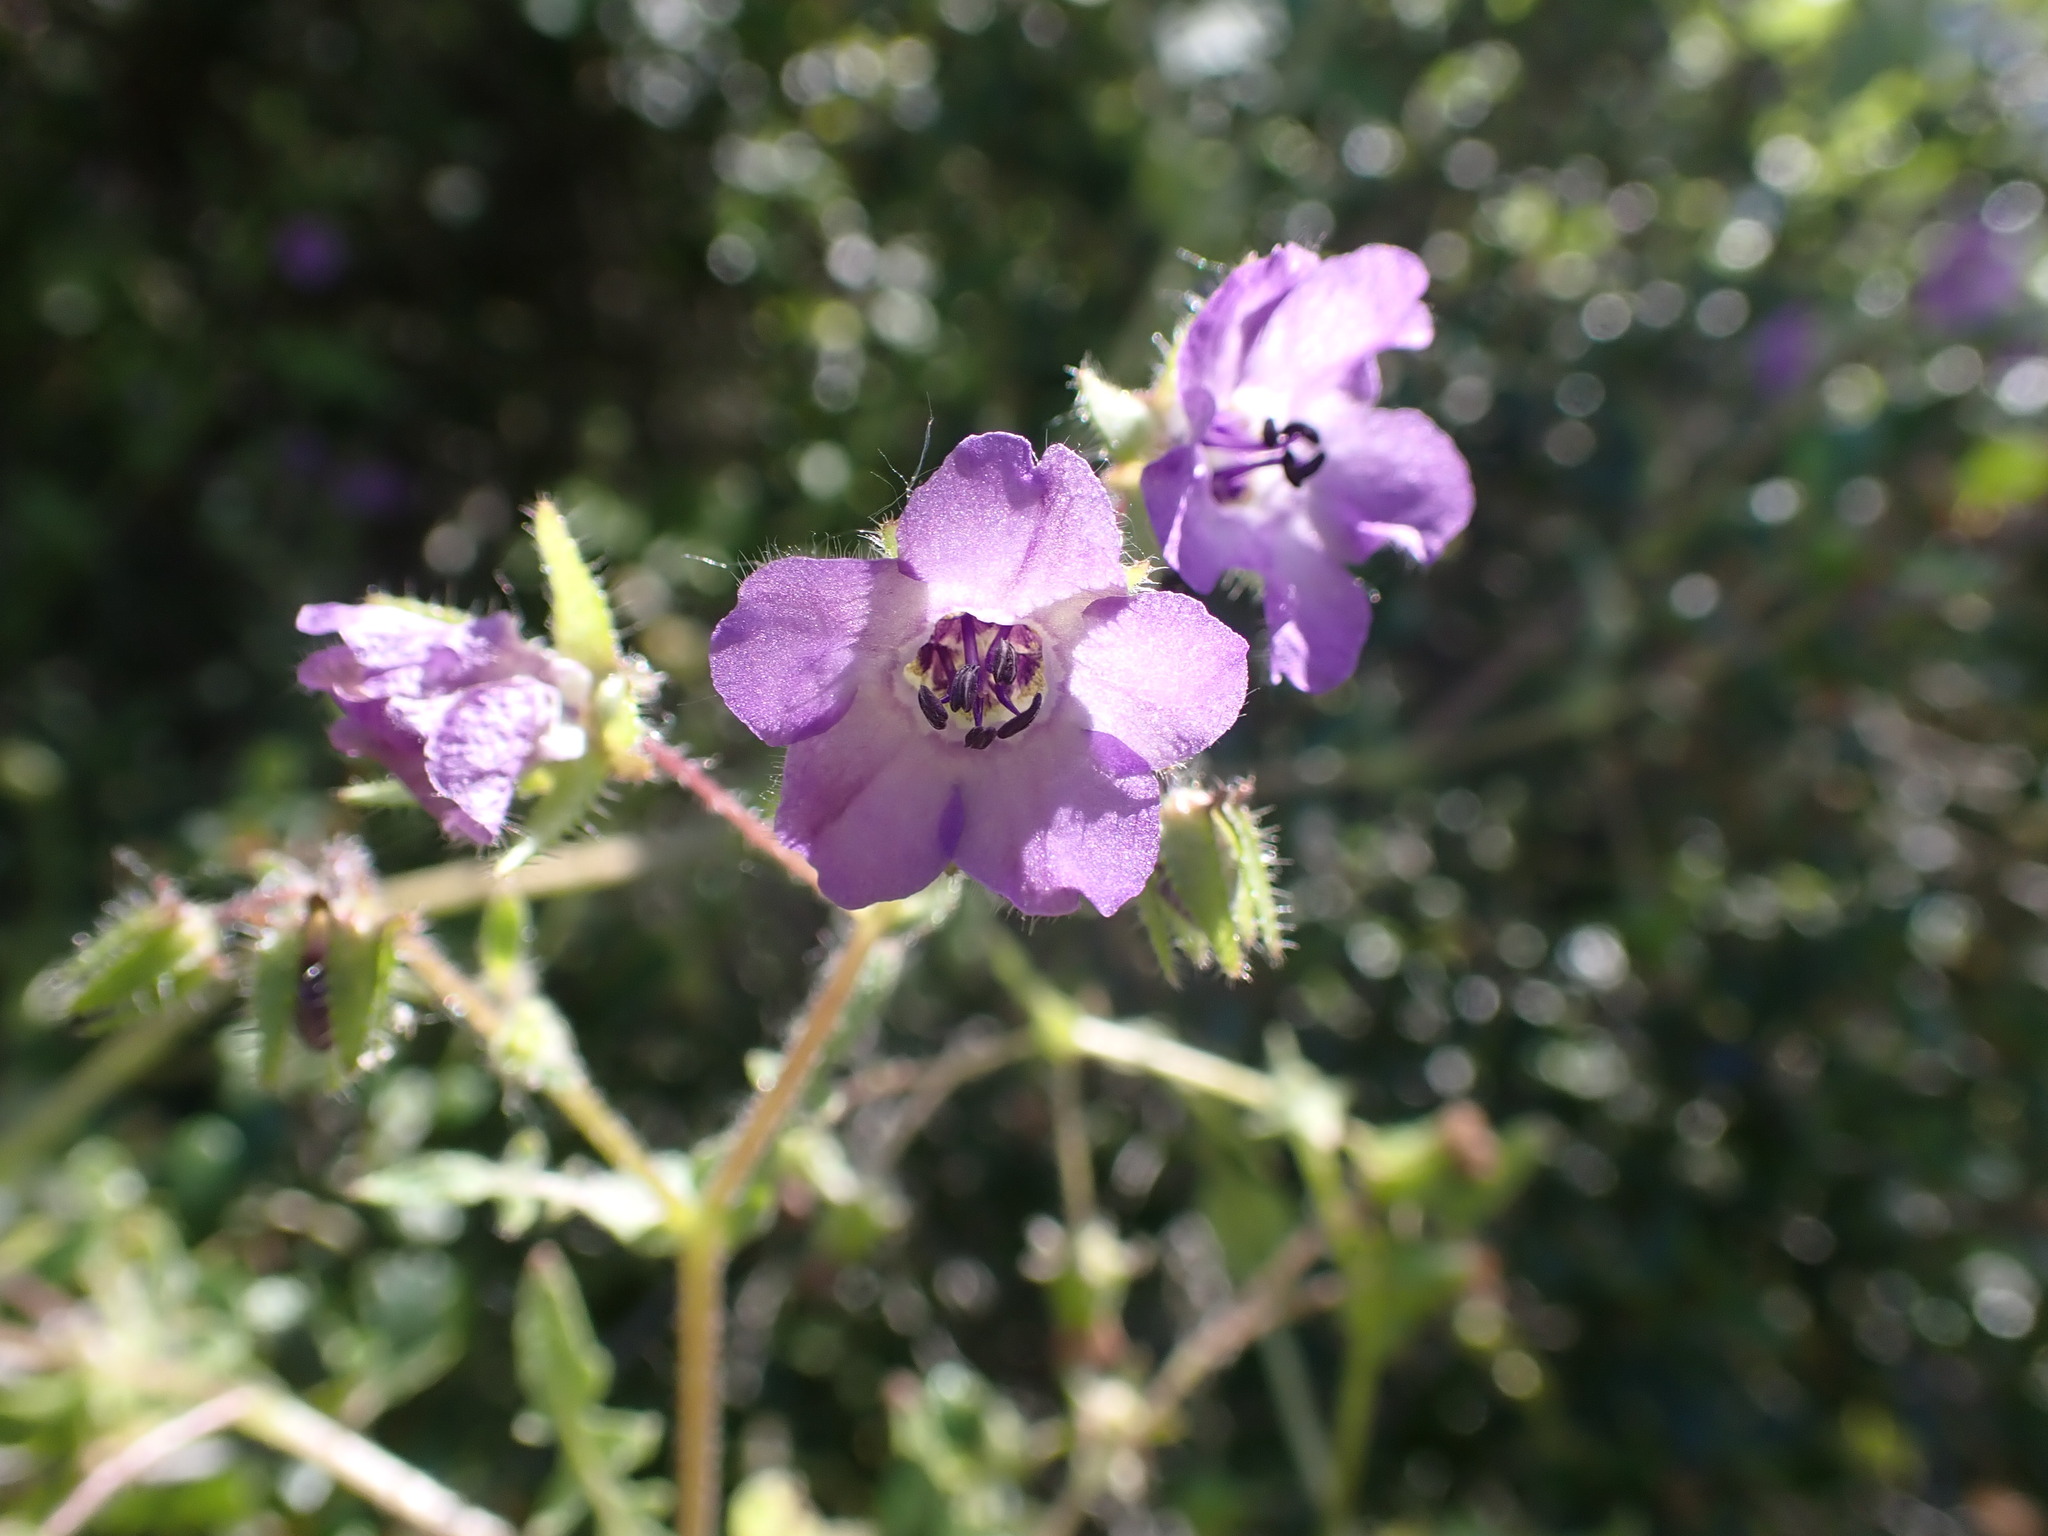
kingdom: Plantae
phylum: Tracheophyta
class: Magnoliopsida
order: Boraginales
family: Hydrophyllaceae
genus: Pholistoma
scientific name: Pholistoma auritum
